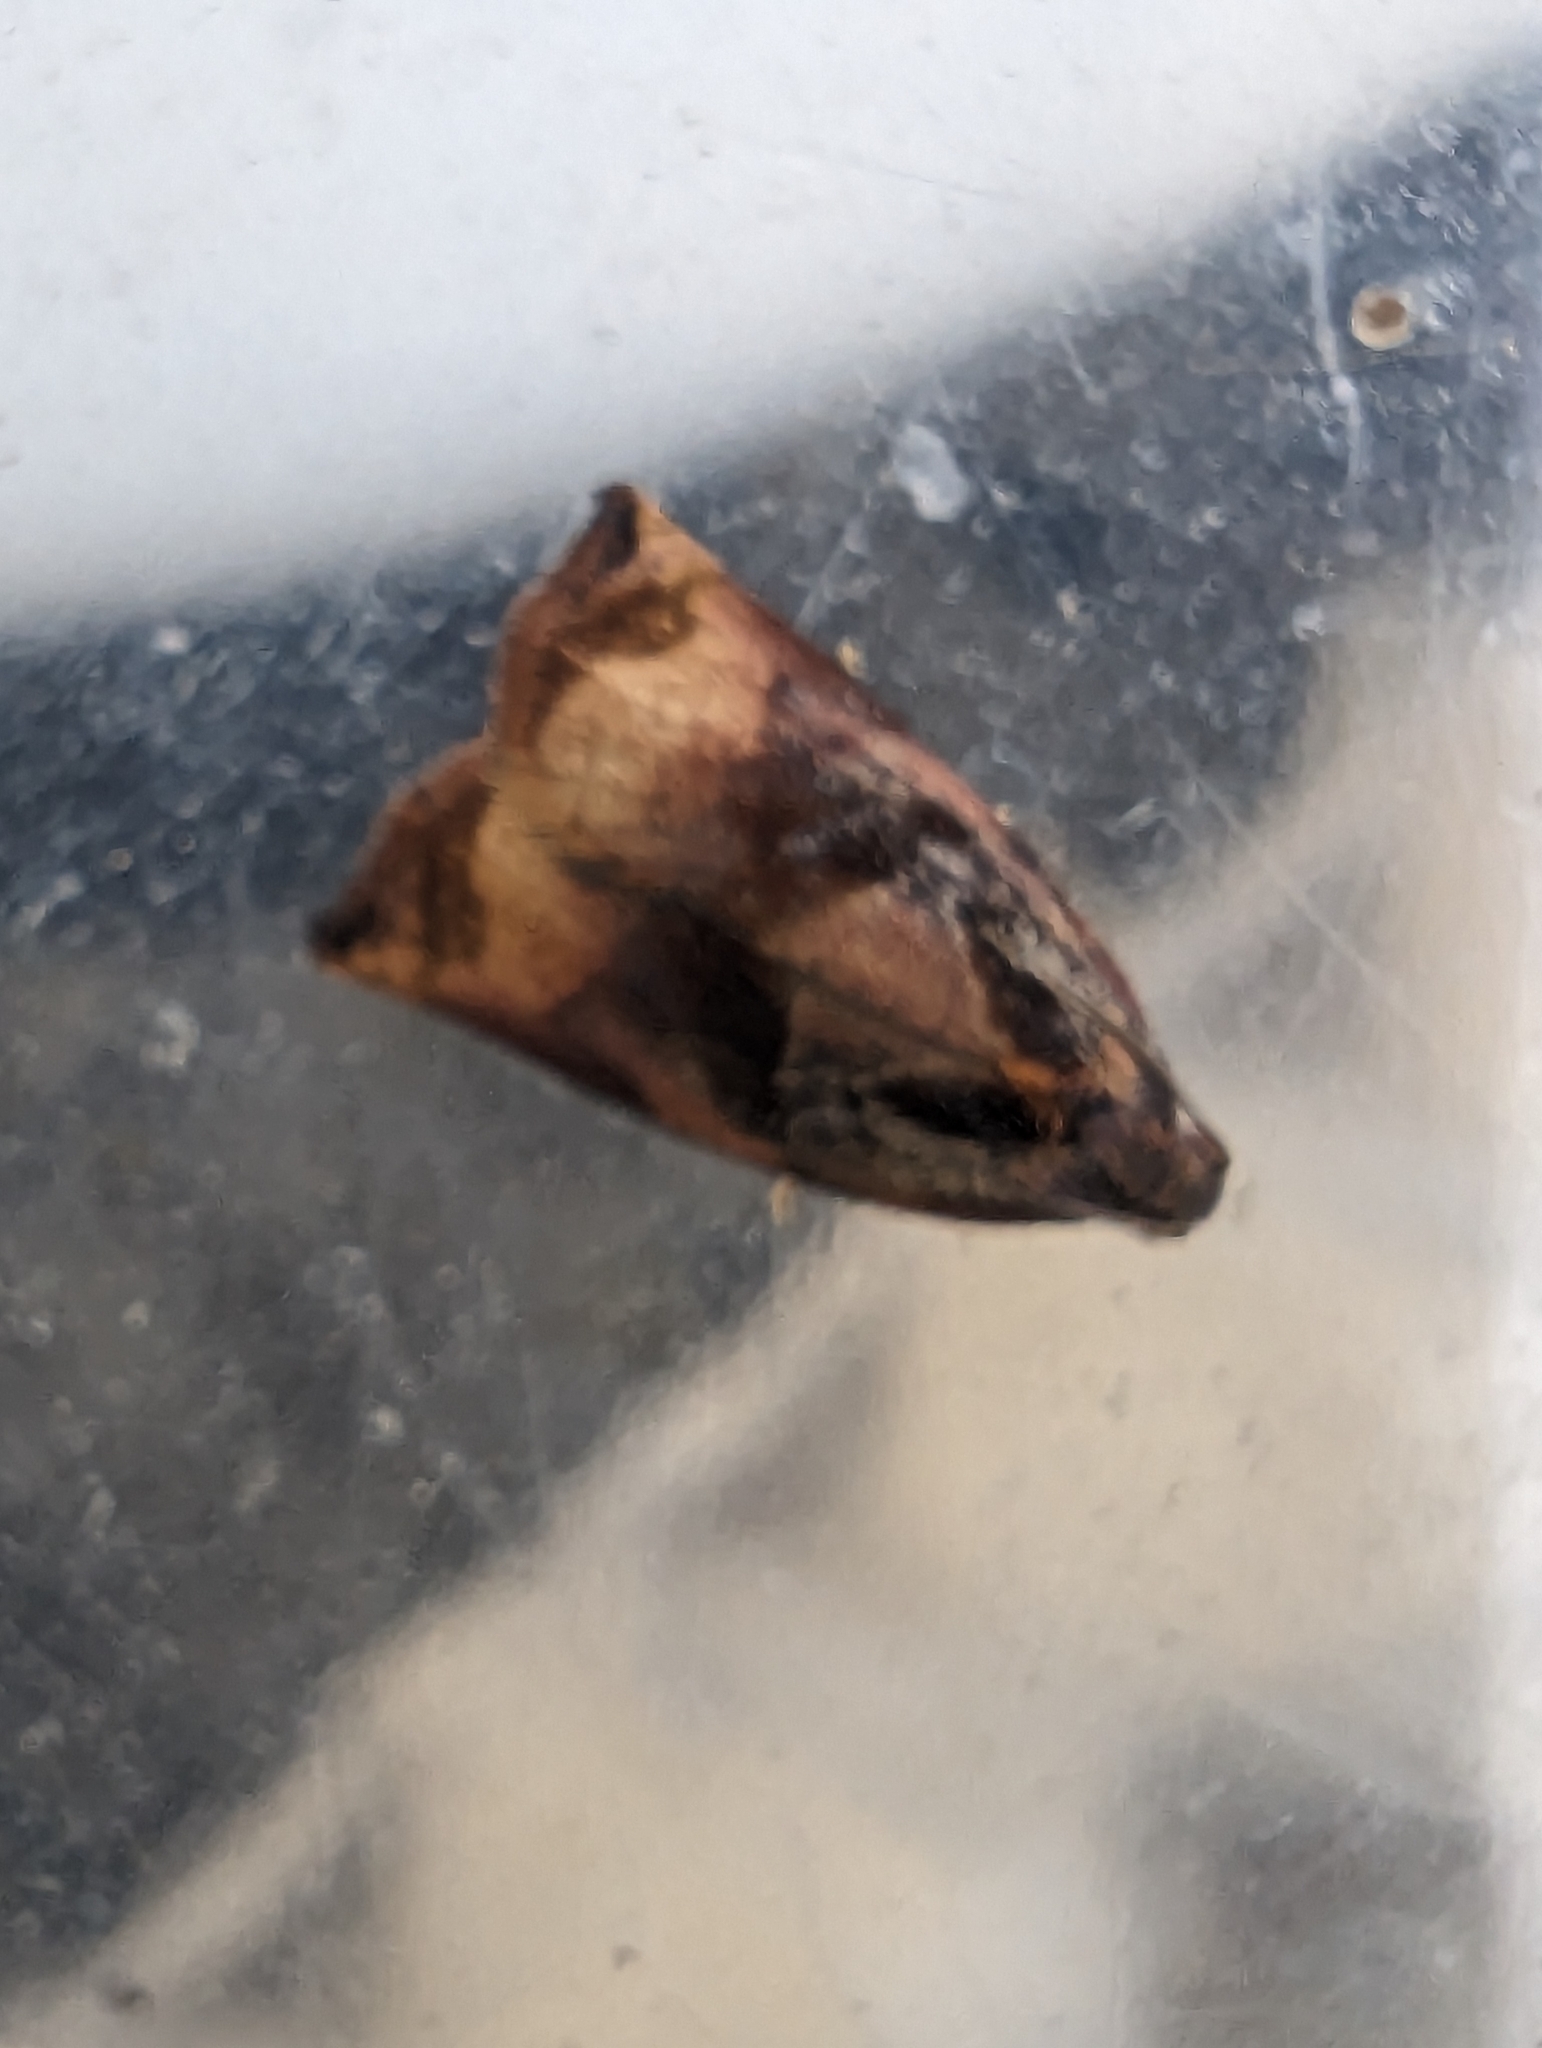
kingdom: Animalia
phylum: Arthropoda
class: Insecta
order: Lepidoptera
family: Tortricidae
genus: Archips
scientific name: Archips podana
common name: Large fruit-tree tortrix
